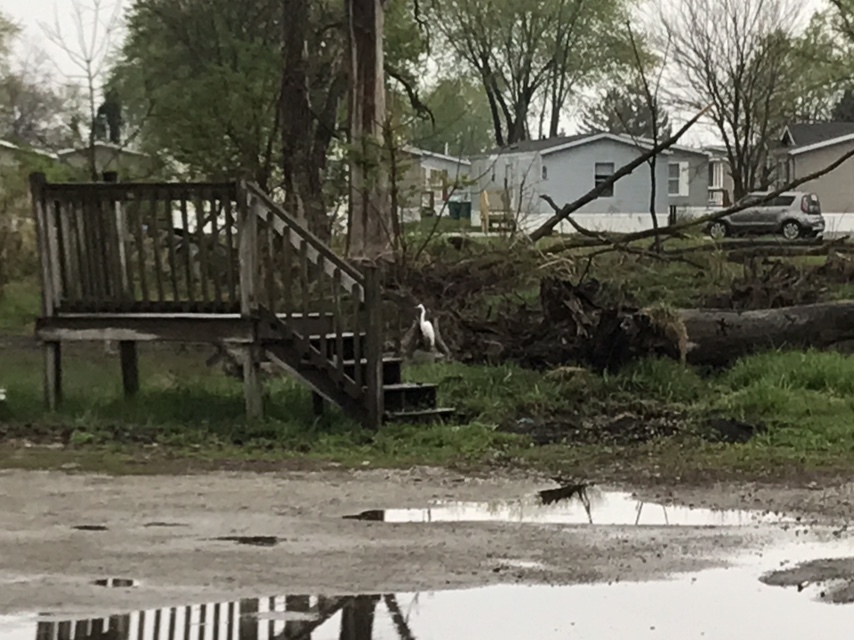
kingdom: Animalia
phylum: Chordata
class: Aves
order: Pelecaniformes
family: Ardeidae
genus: Ardea
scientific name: Ardea alba
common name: Great egret
